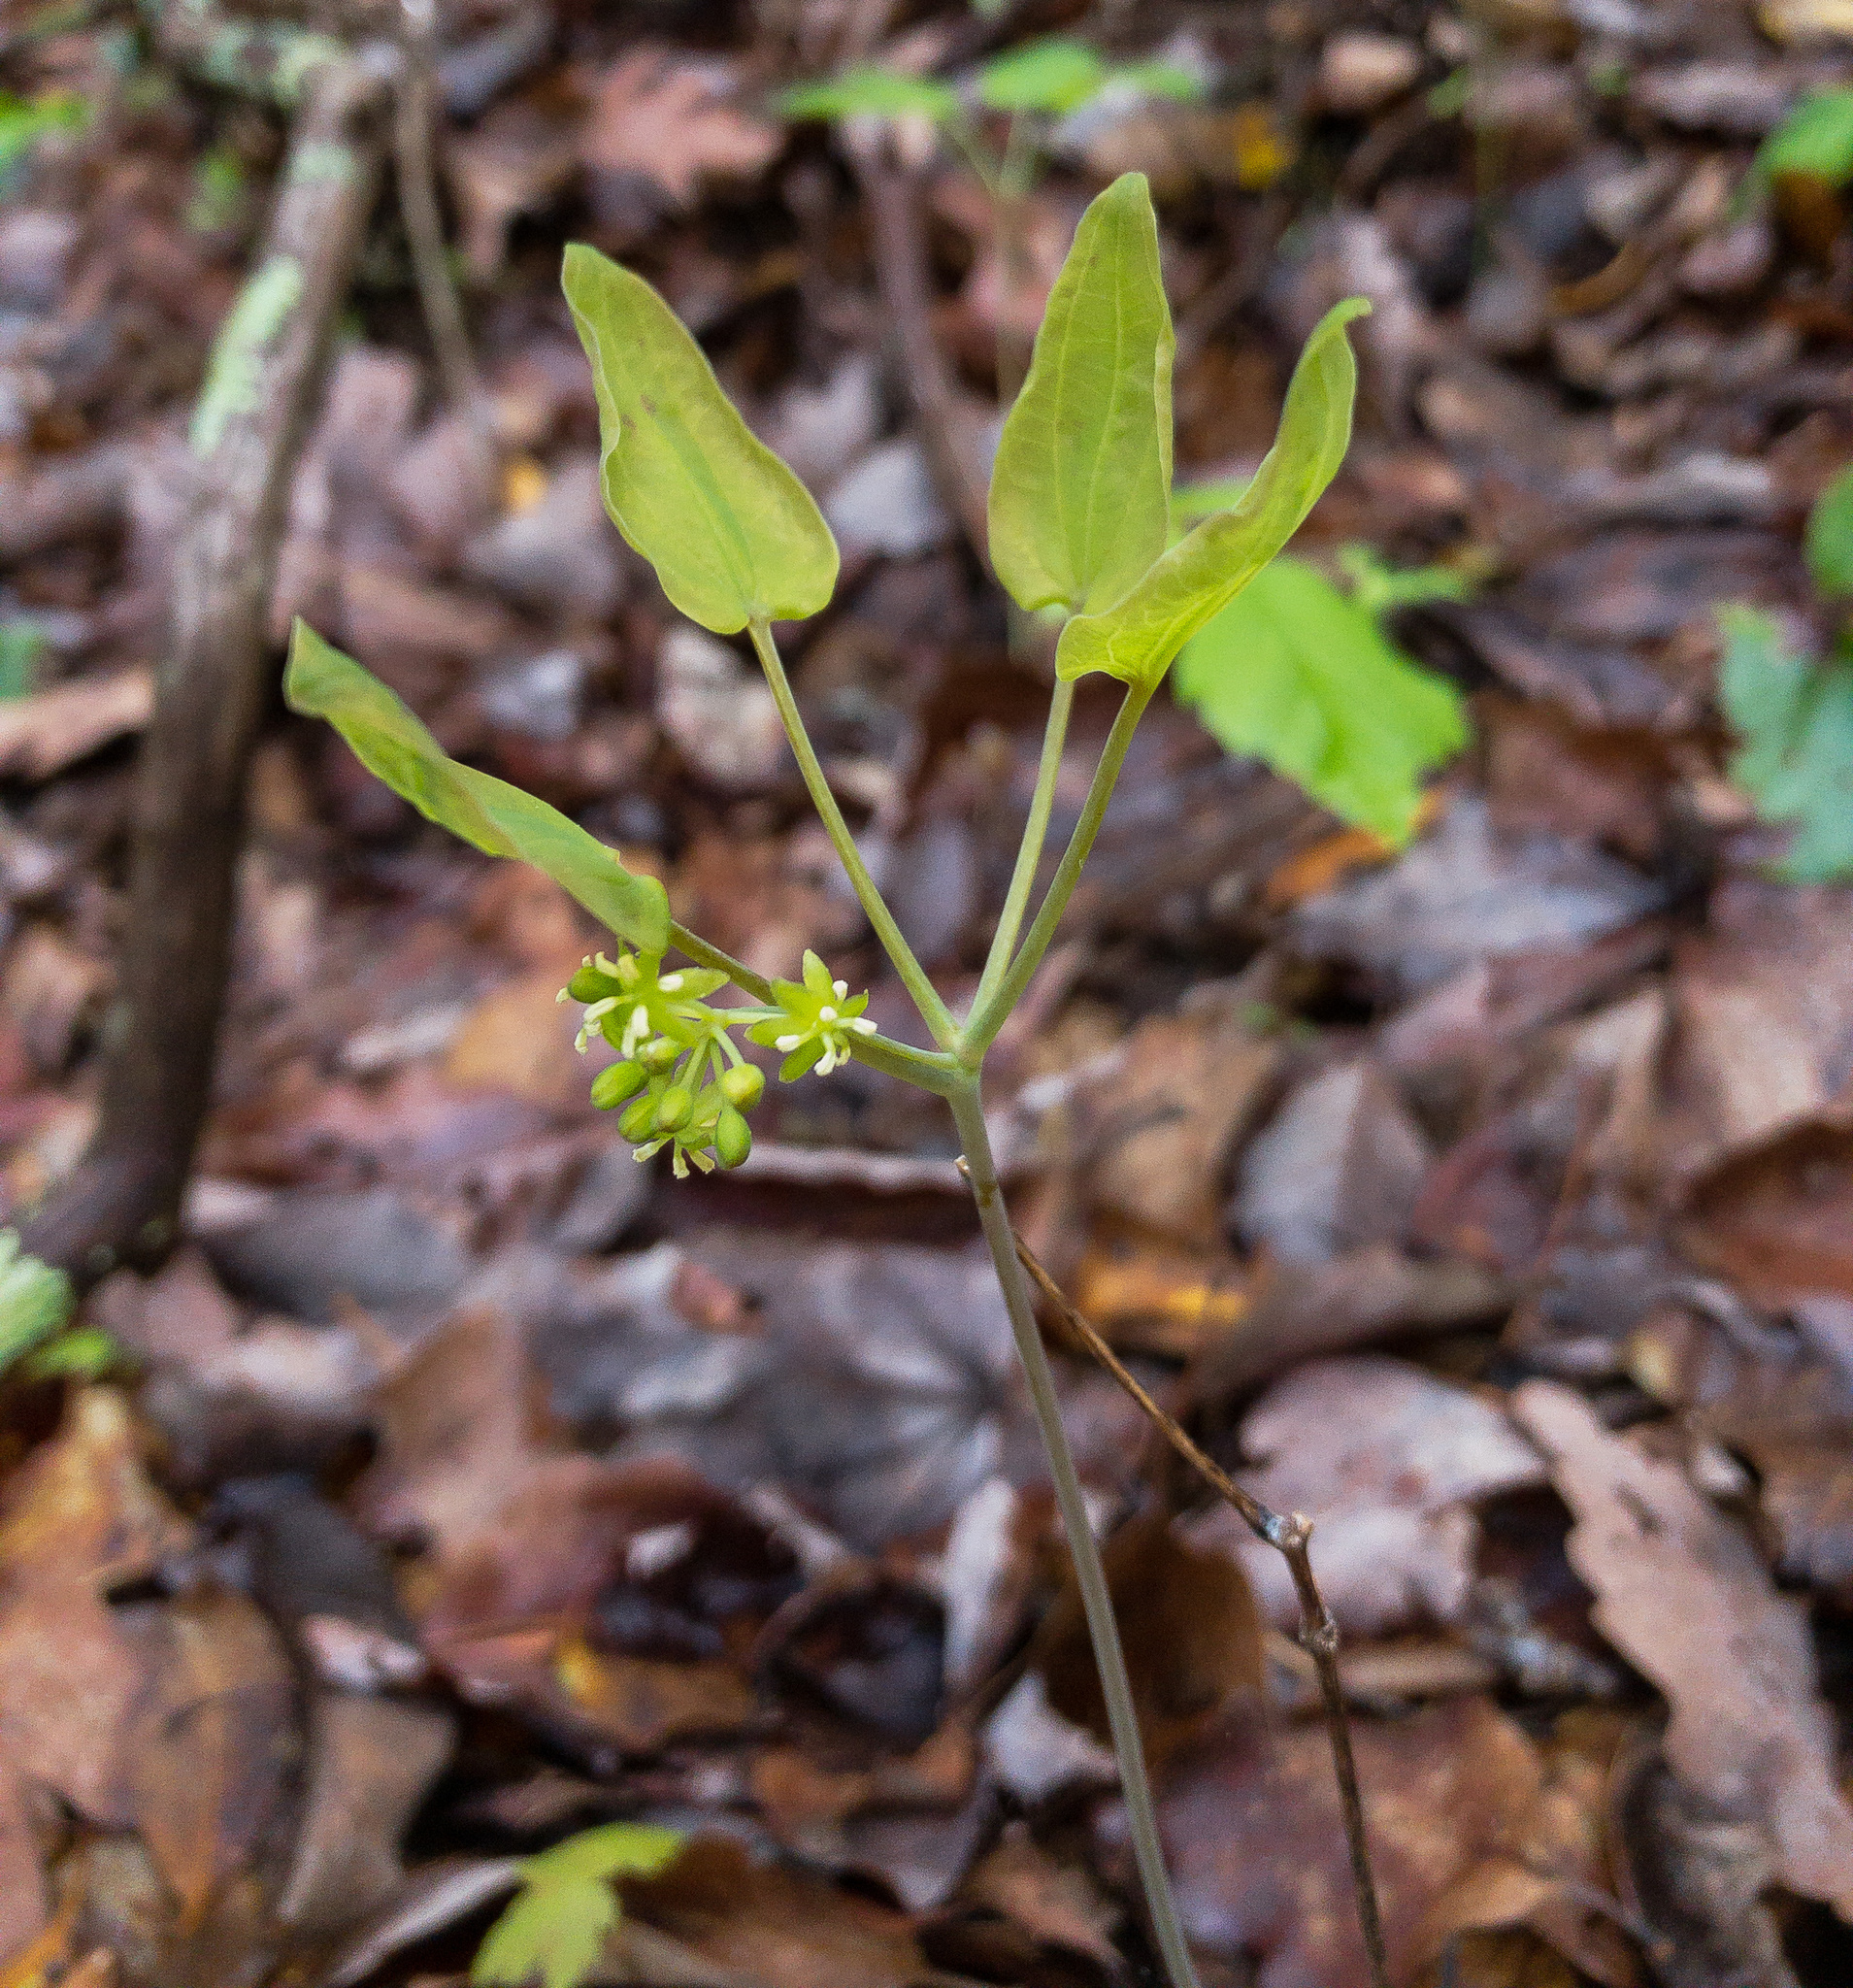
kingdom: Plantae
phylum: Tracheophyta
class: Liliopsida
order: Liliales
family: Smilacaceae
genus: Smilax
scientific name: Smilax biltmoreana
